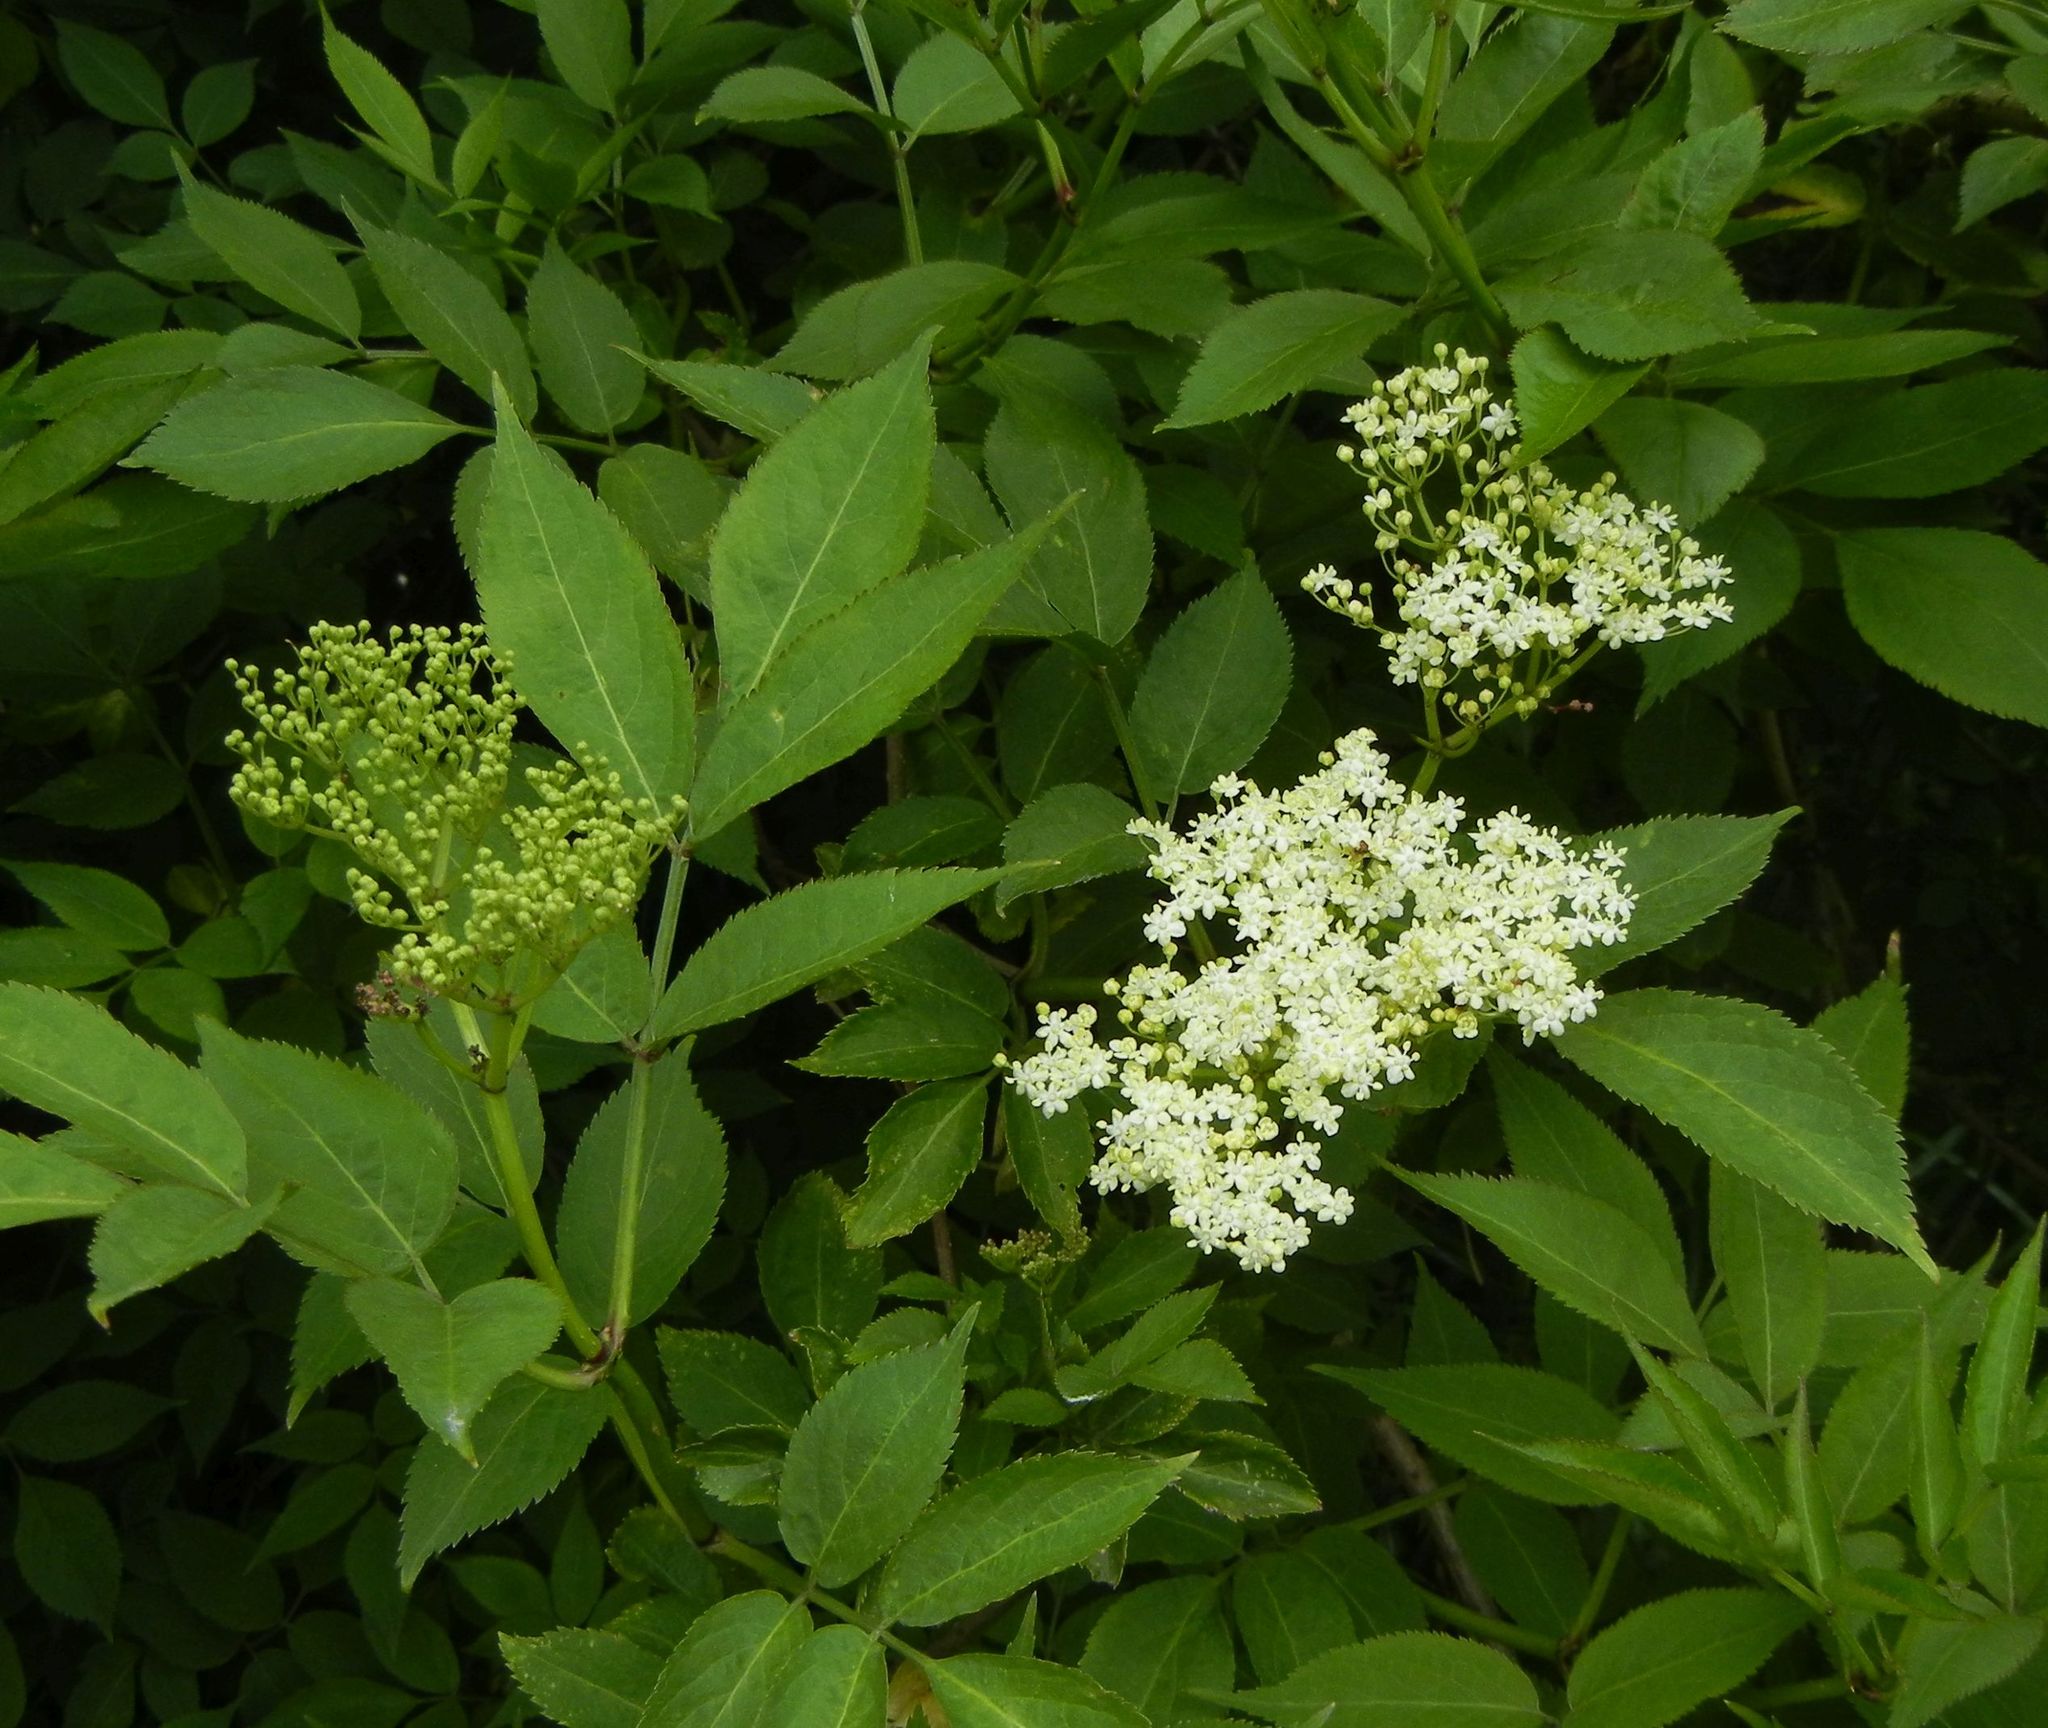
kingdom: Plantae
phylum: Tracheophyta
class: Magnoliopsida
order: Dipsacales
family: Viburnaceae
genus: Sambucus
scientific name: Sambucus nigra
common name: Elder
